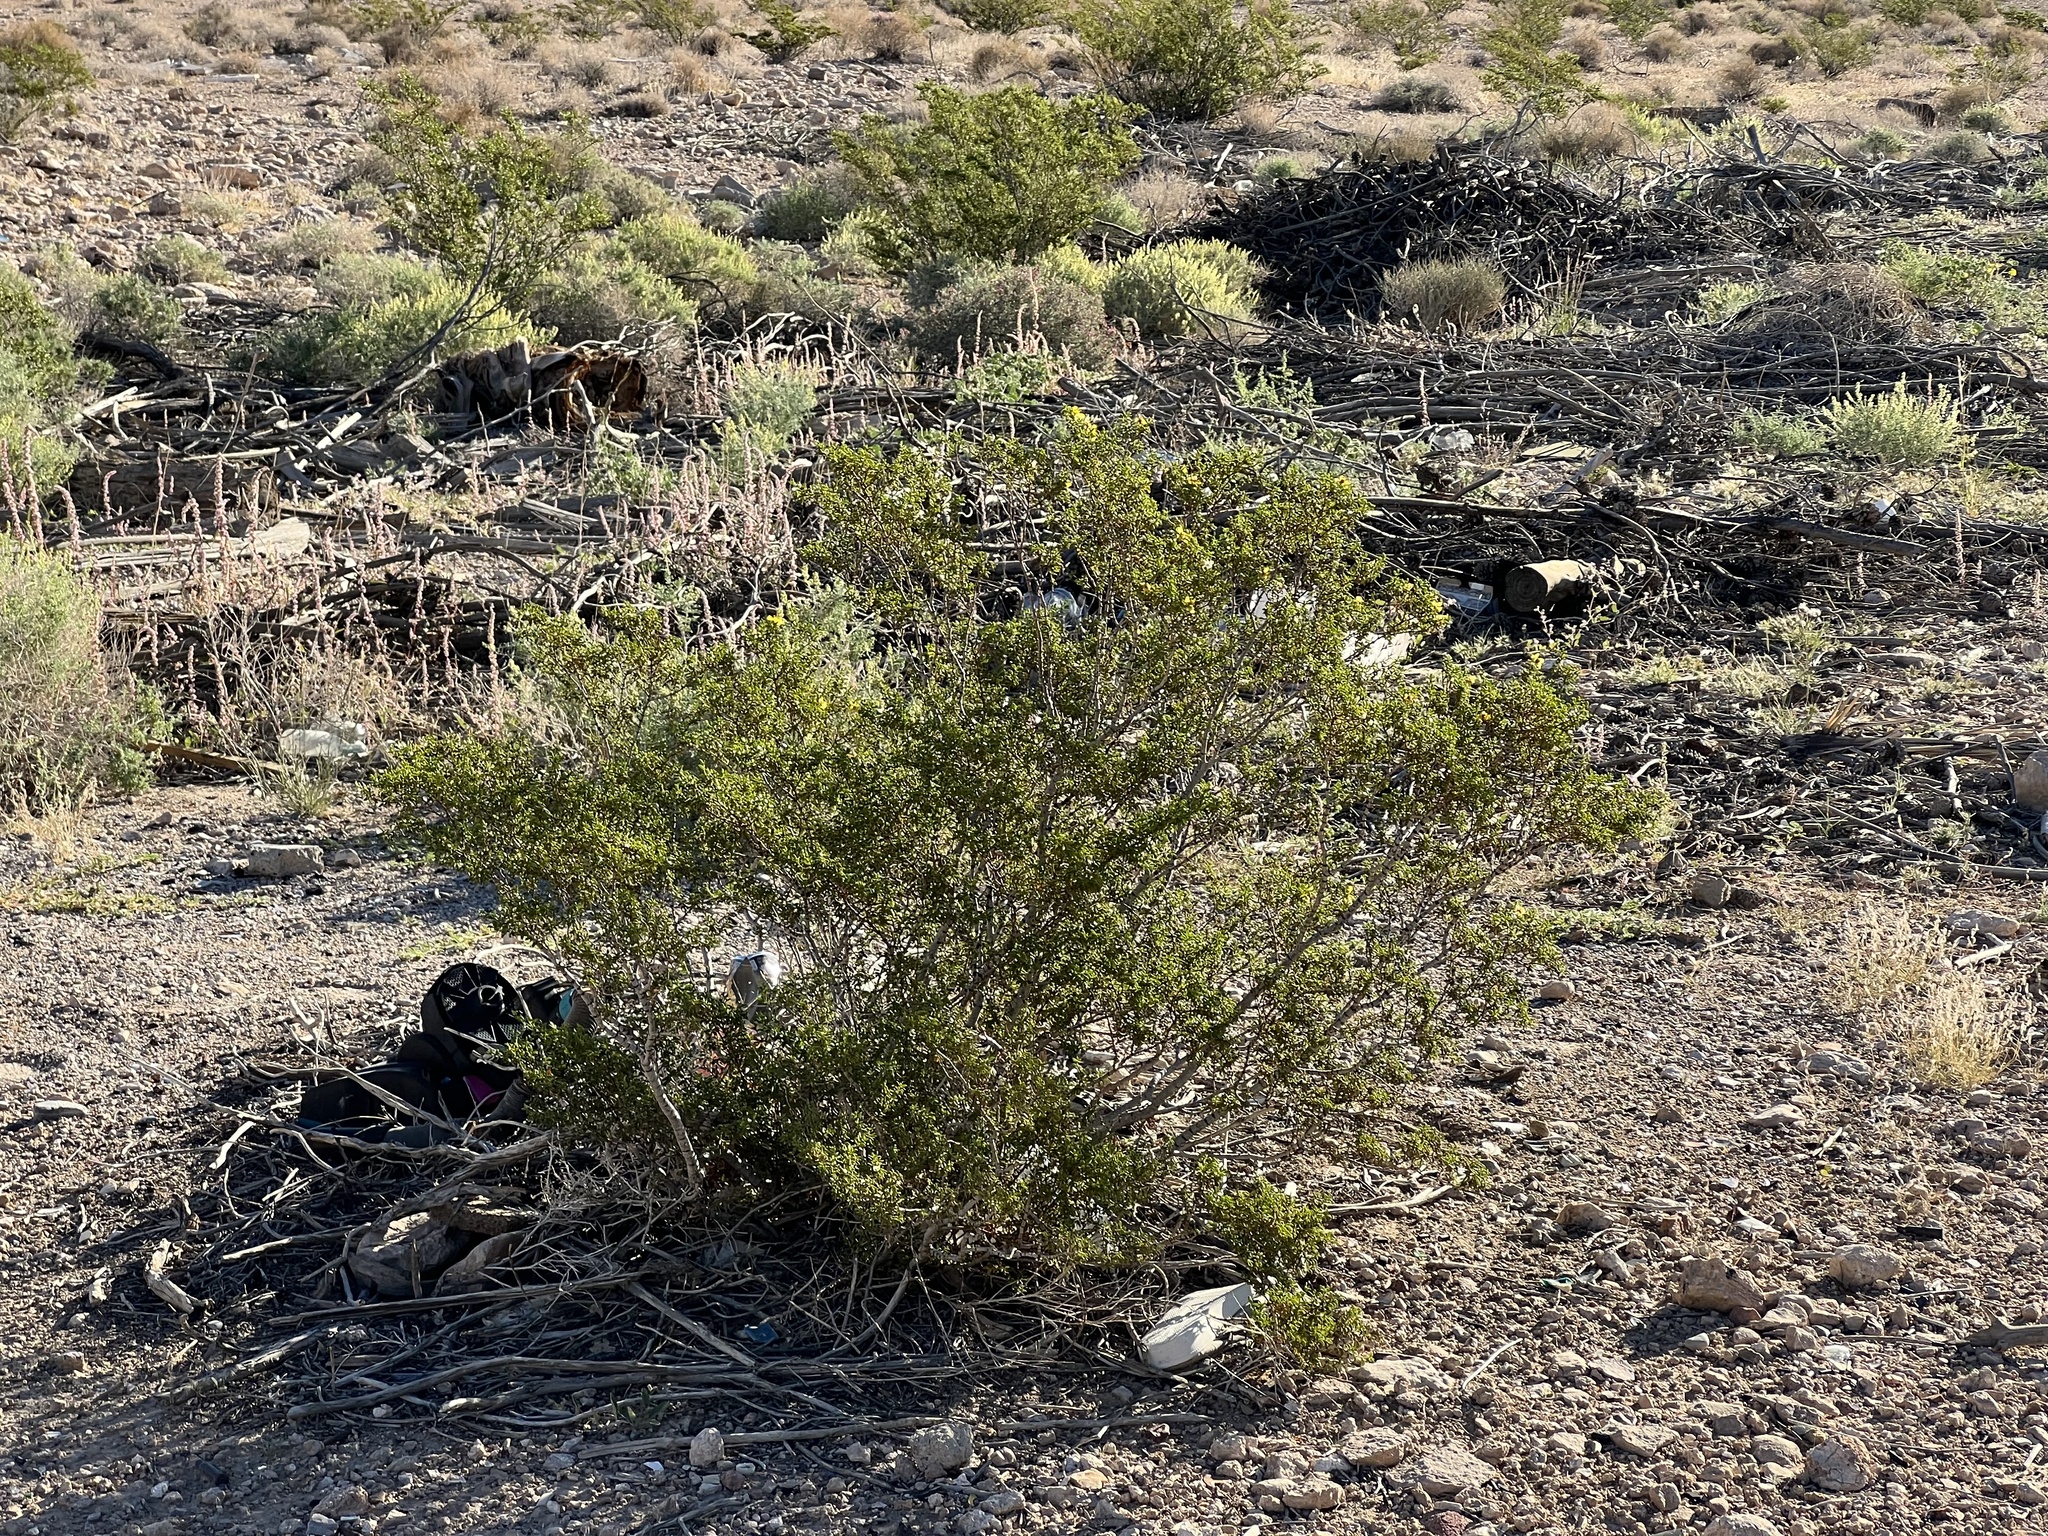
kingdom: Plantae
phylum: Tracheophyta
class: Magnoliopsida
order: Zygophyllales
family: Zygophyllaceae
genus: Larrea
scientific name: Larrea tridentata
